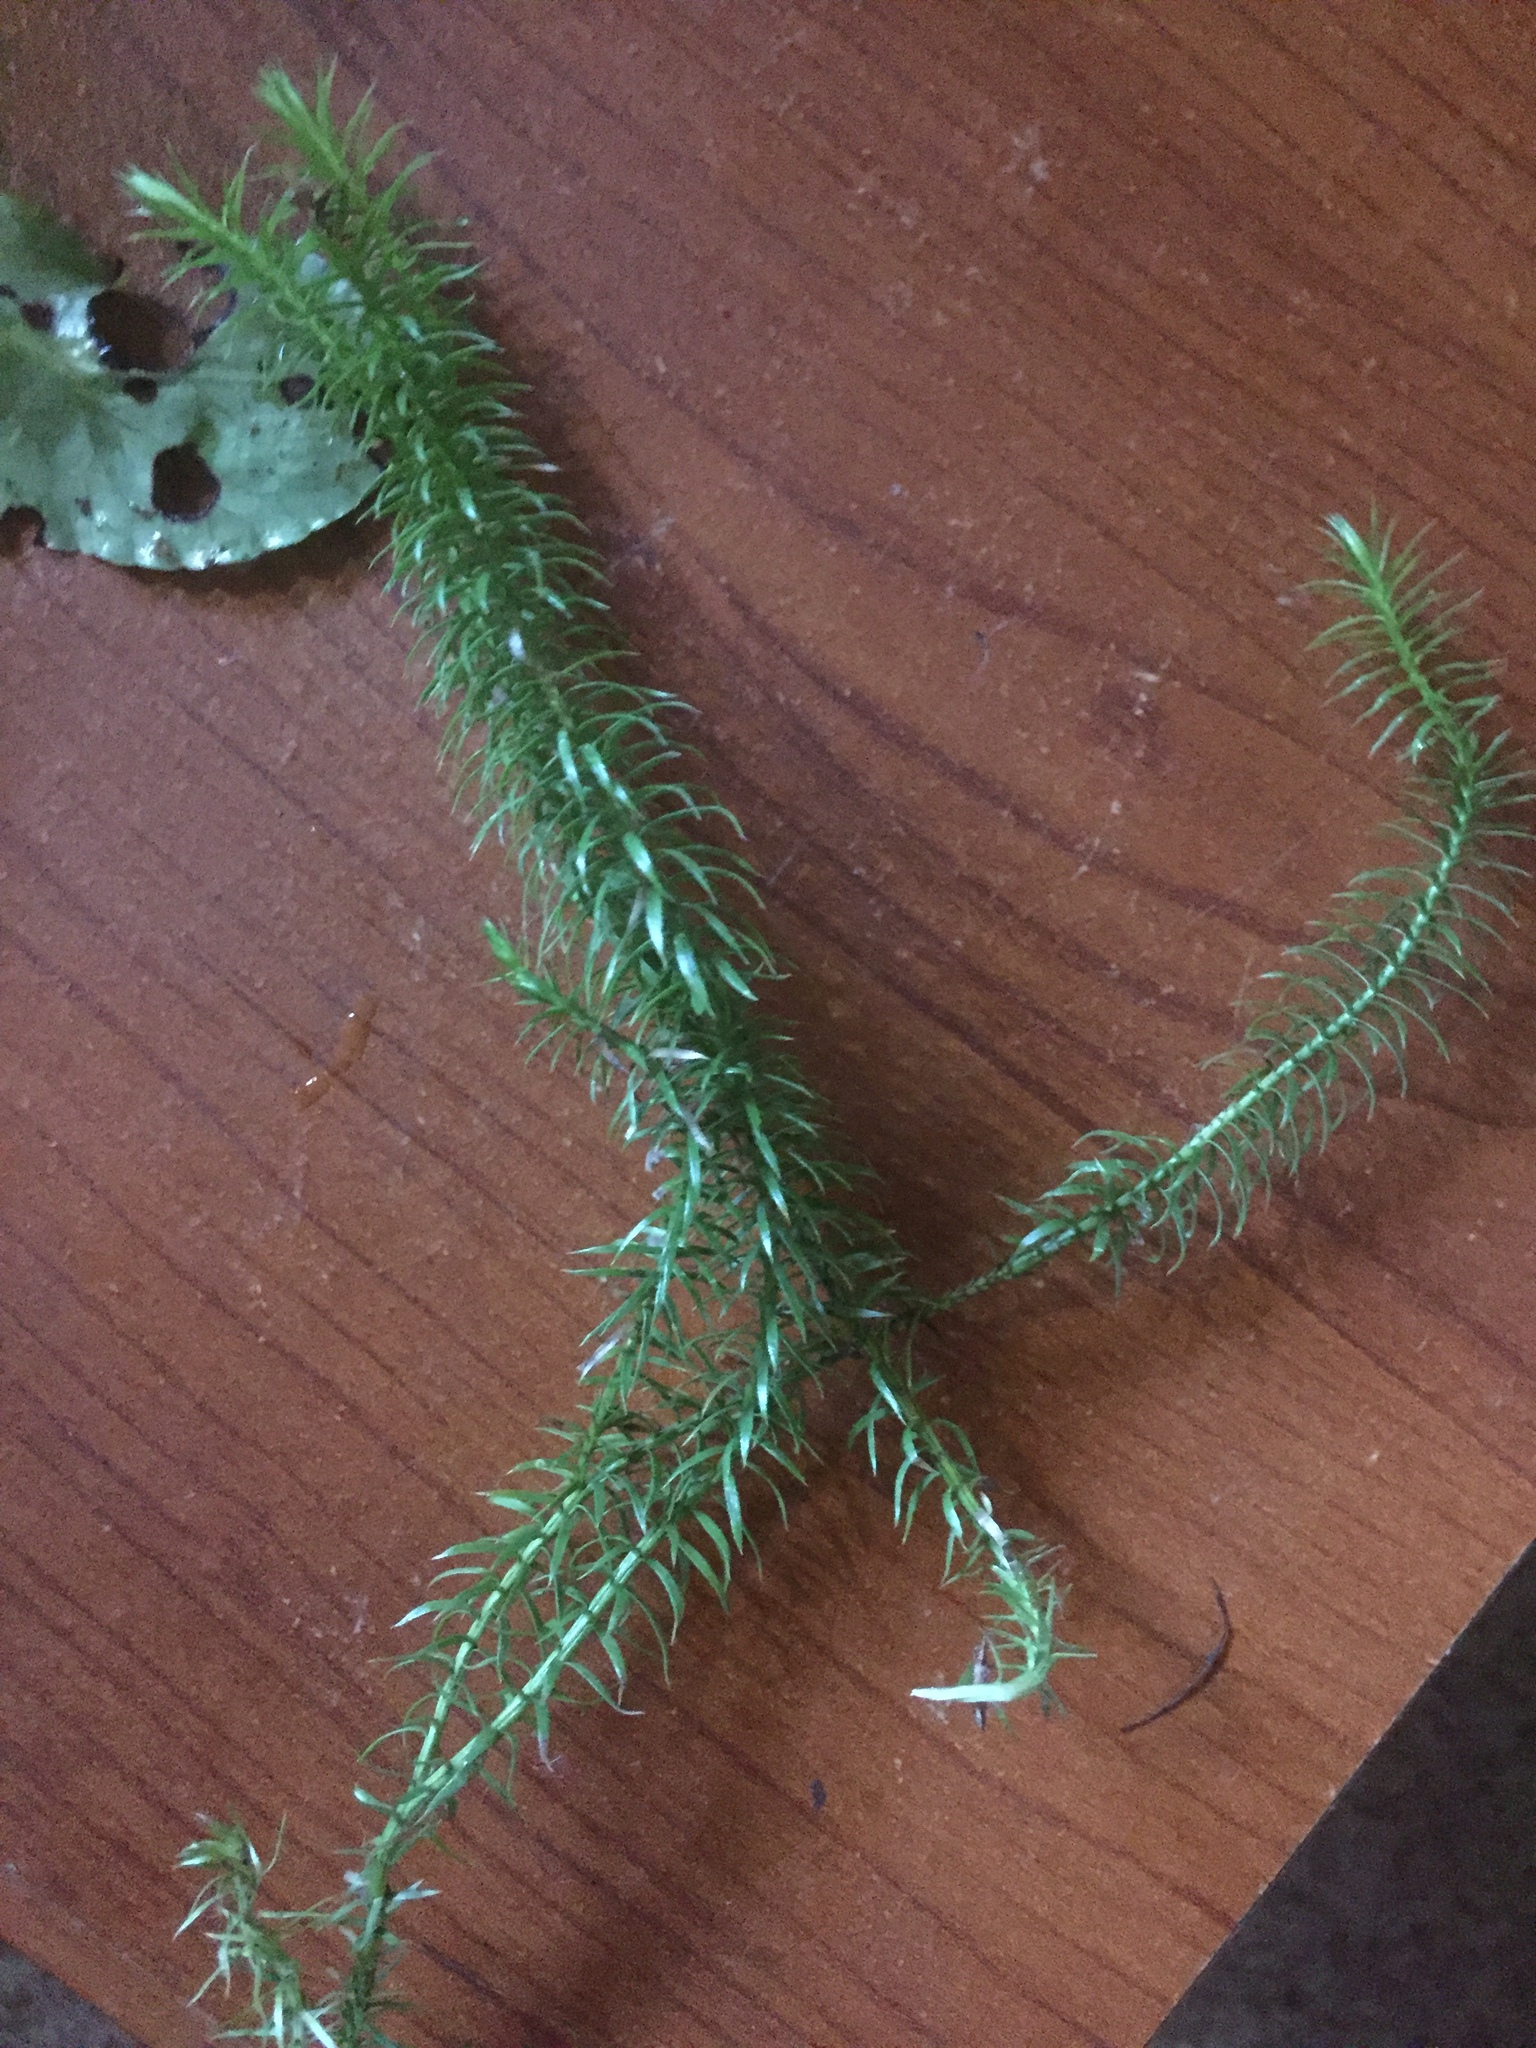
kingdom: Plantae
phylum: Tracheophyta
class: Lycopodiopsida
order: Lycopodiales
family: Lycopodiaceae
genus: Spinulum
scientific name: Spinulum annotinum
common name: Interrupted club-moss
